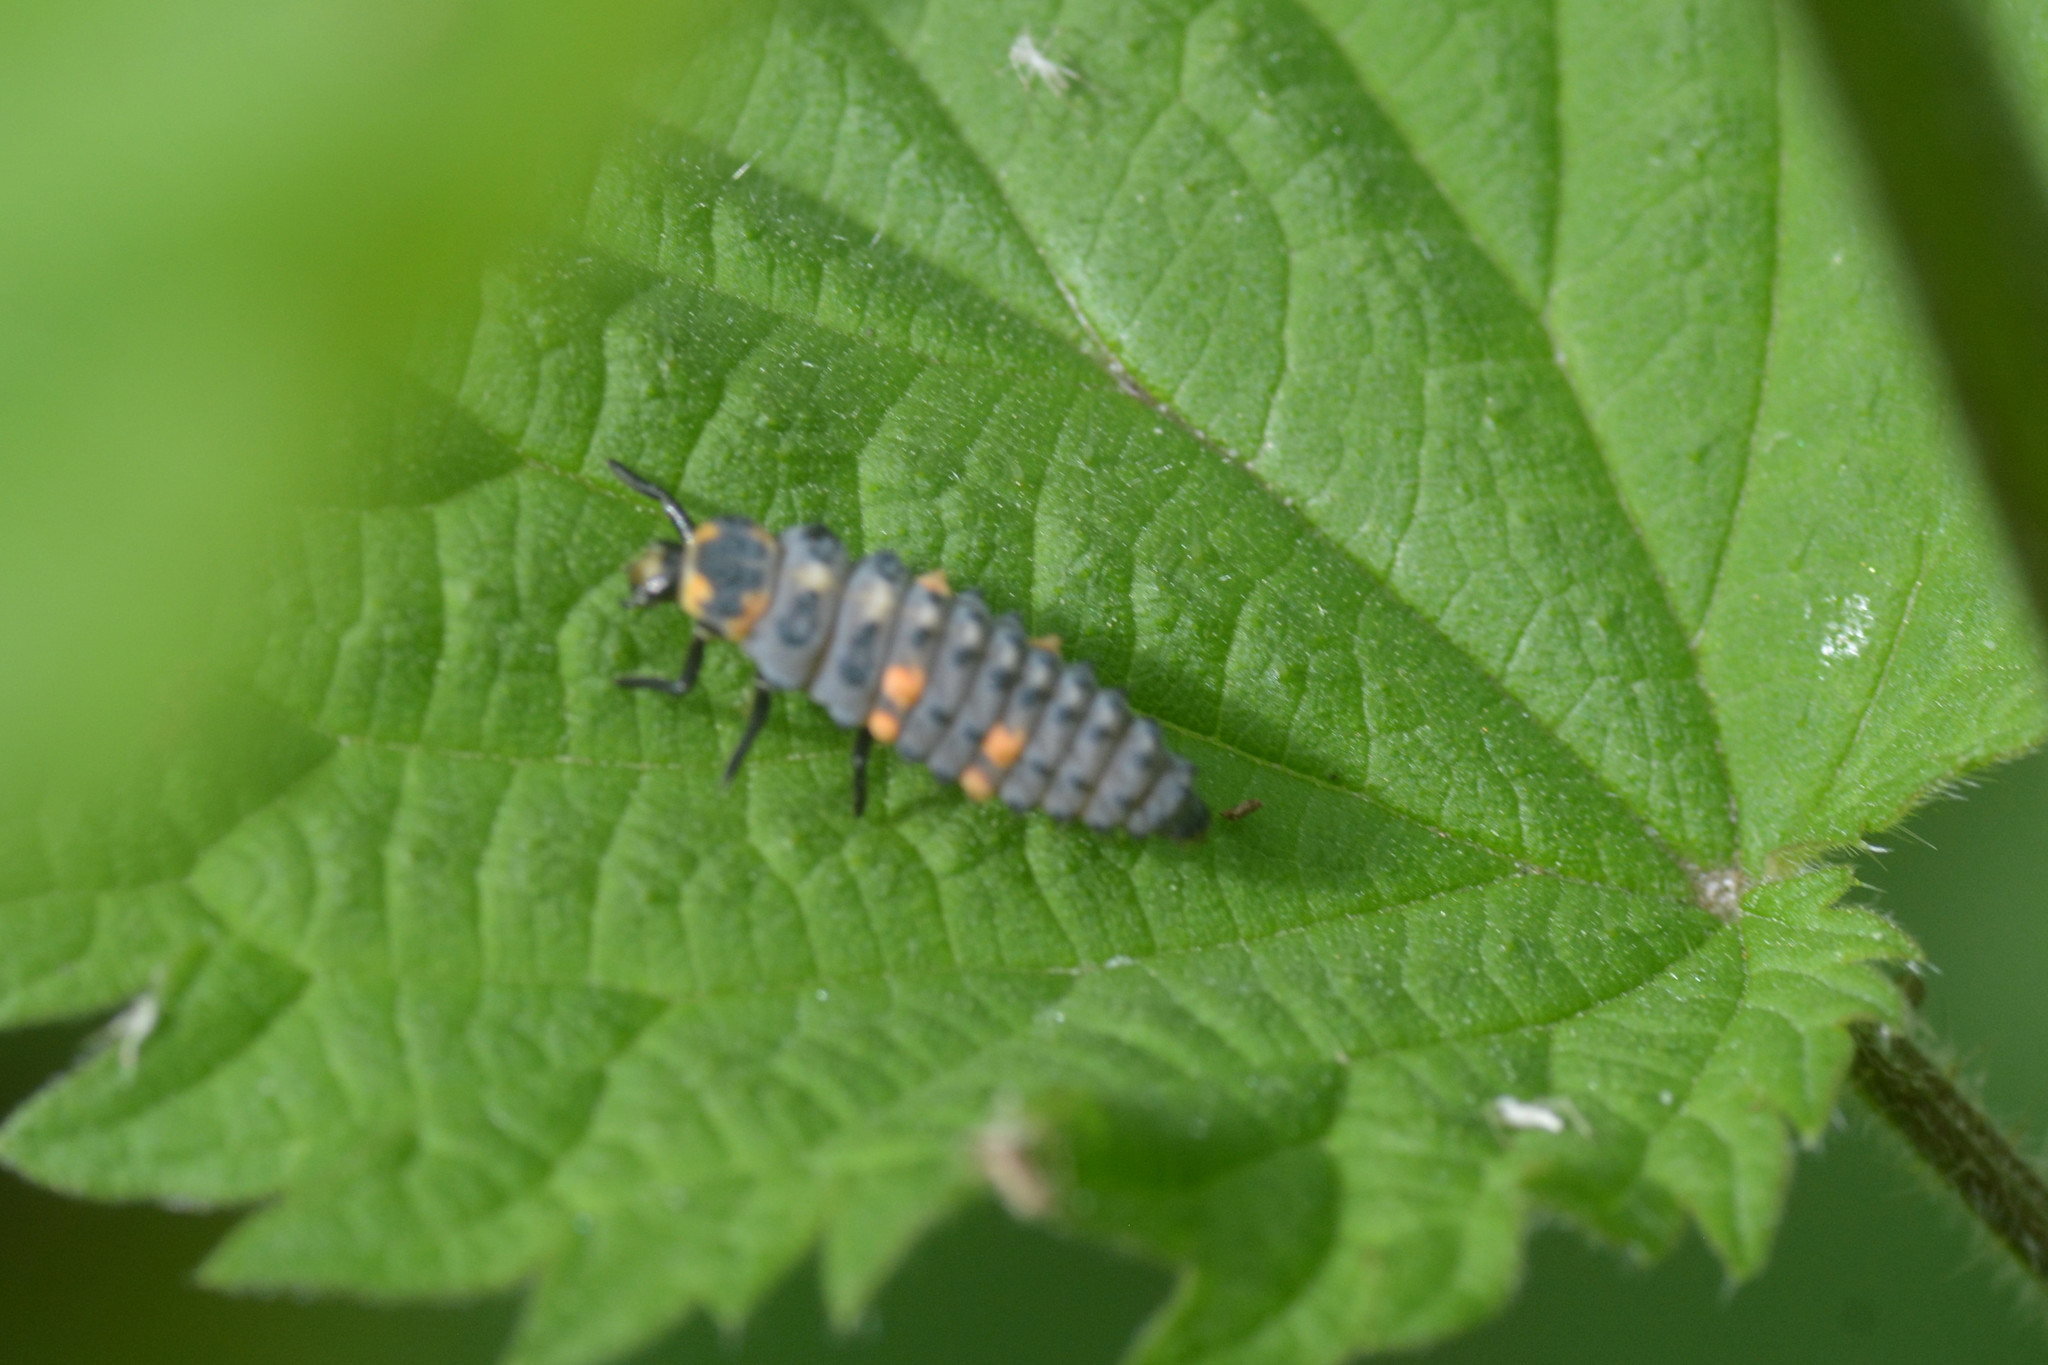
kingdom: Animalia
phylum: Arthropoda
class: Insecta
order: Coleoptera
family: Coccinellidae
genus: Coccinella
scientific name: Coccinella septempunctata
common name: Sevenspotted lady beetle
